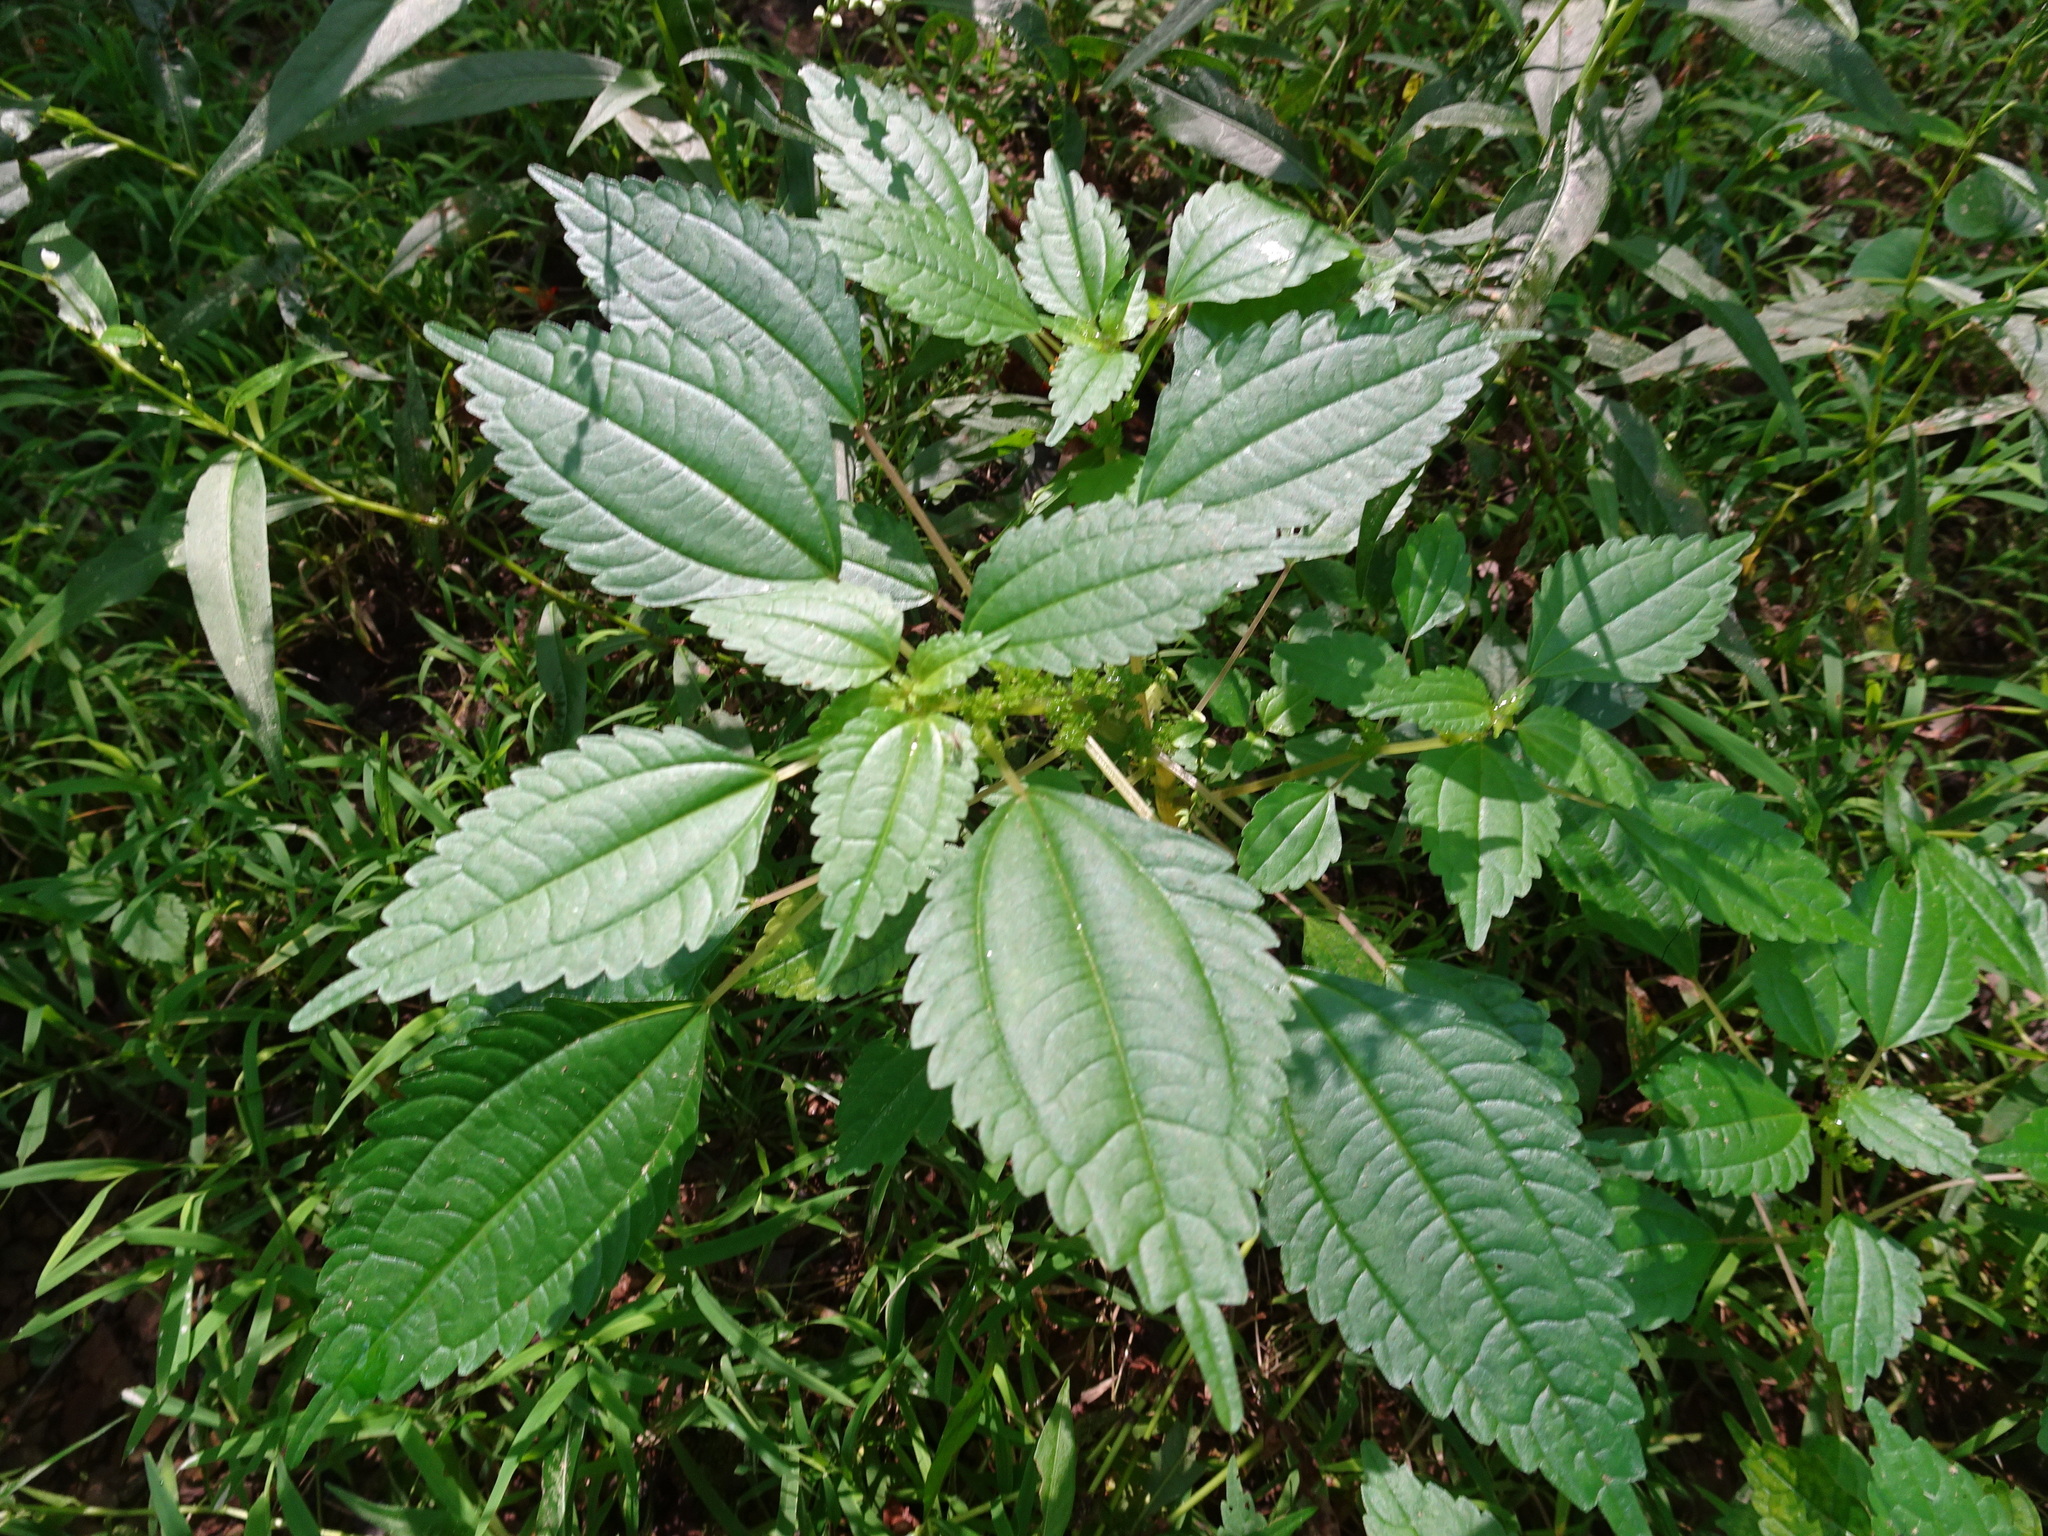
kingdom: Plantae
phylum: Tracheophyta
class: Magnoliopsida
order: Rosales
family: Urticaceae
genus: Pilea
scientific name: Pilea pumila
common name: Clearweed
